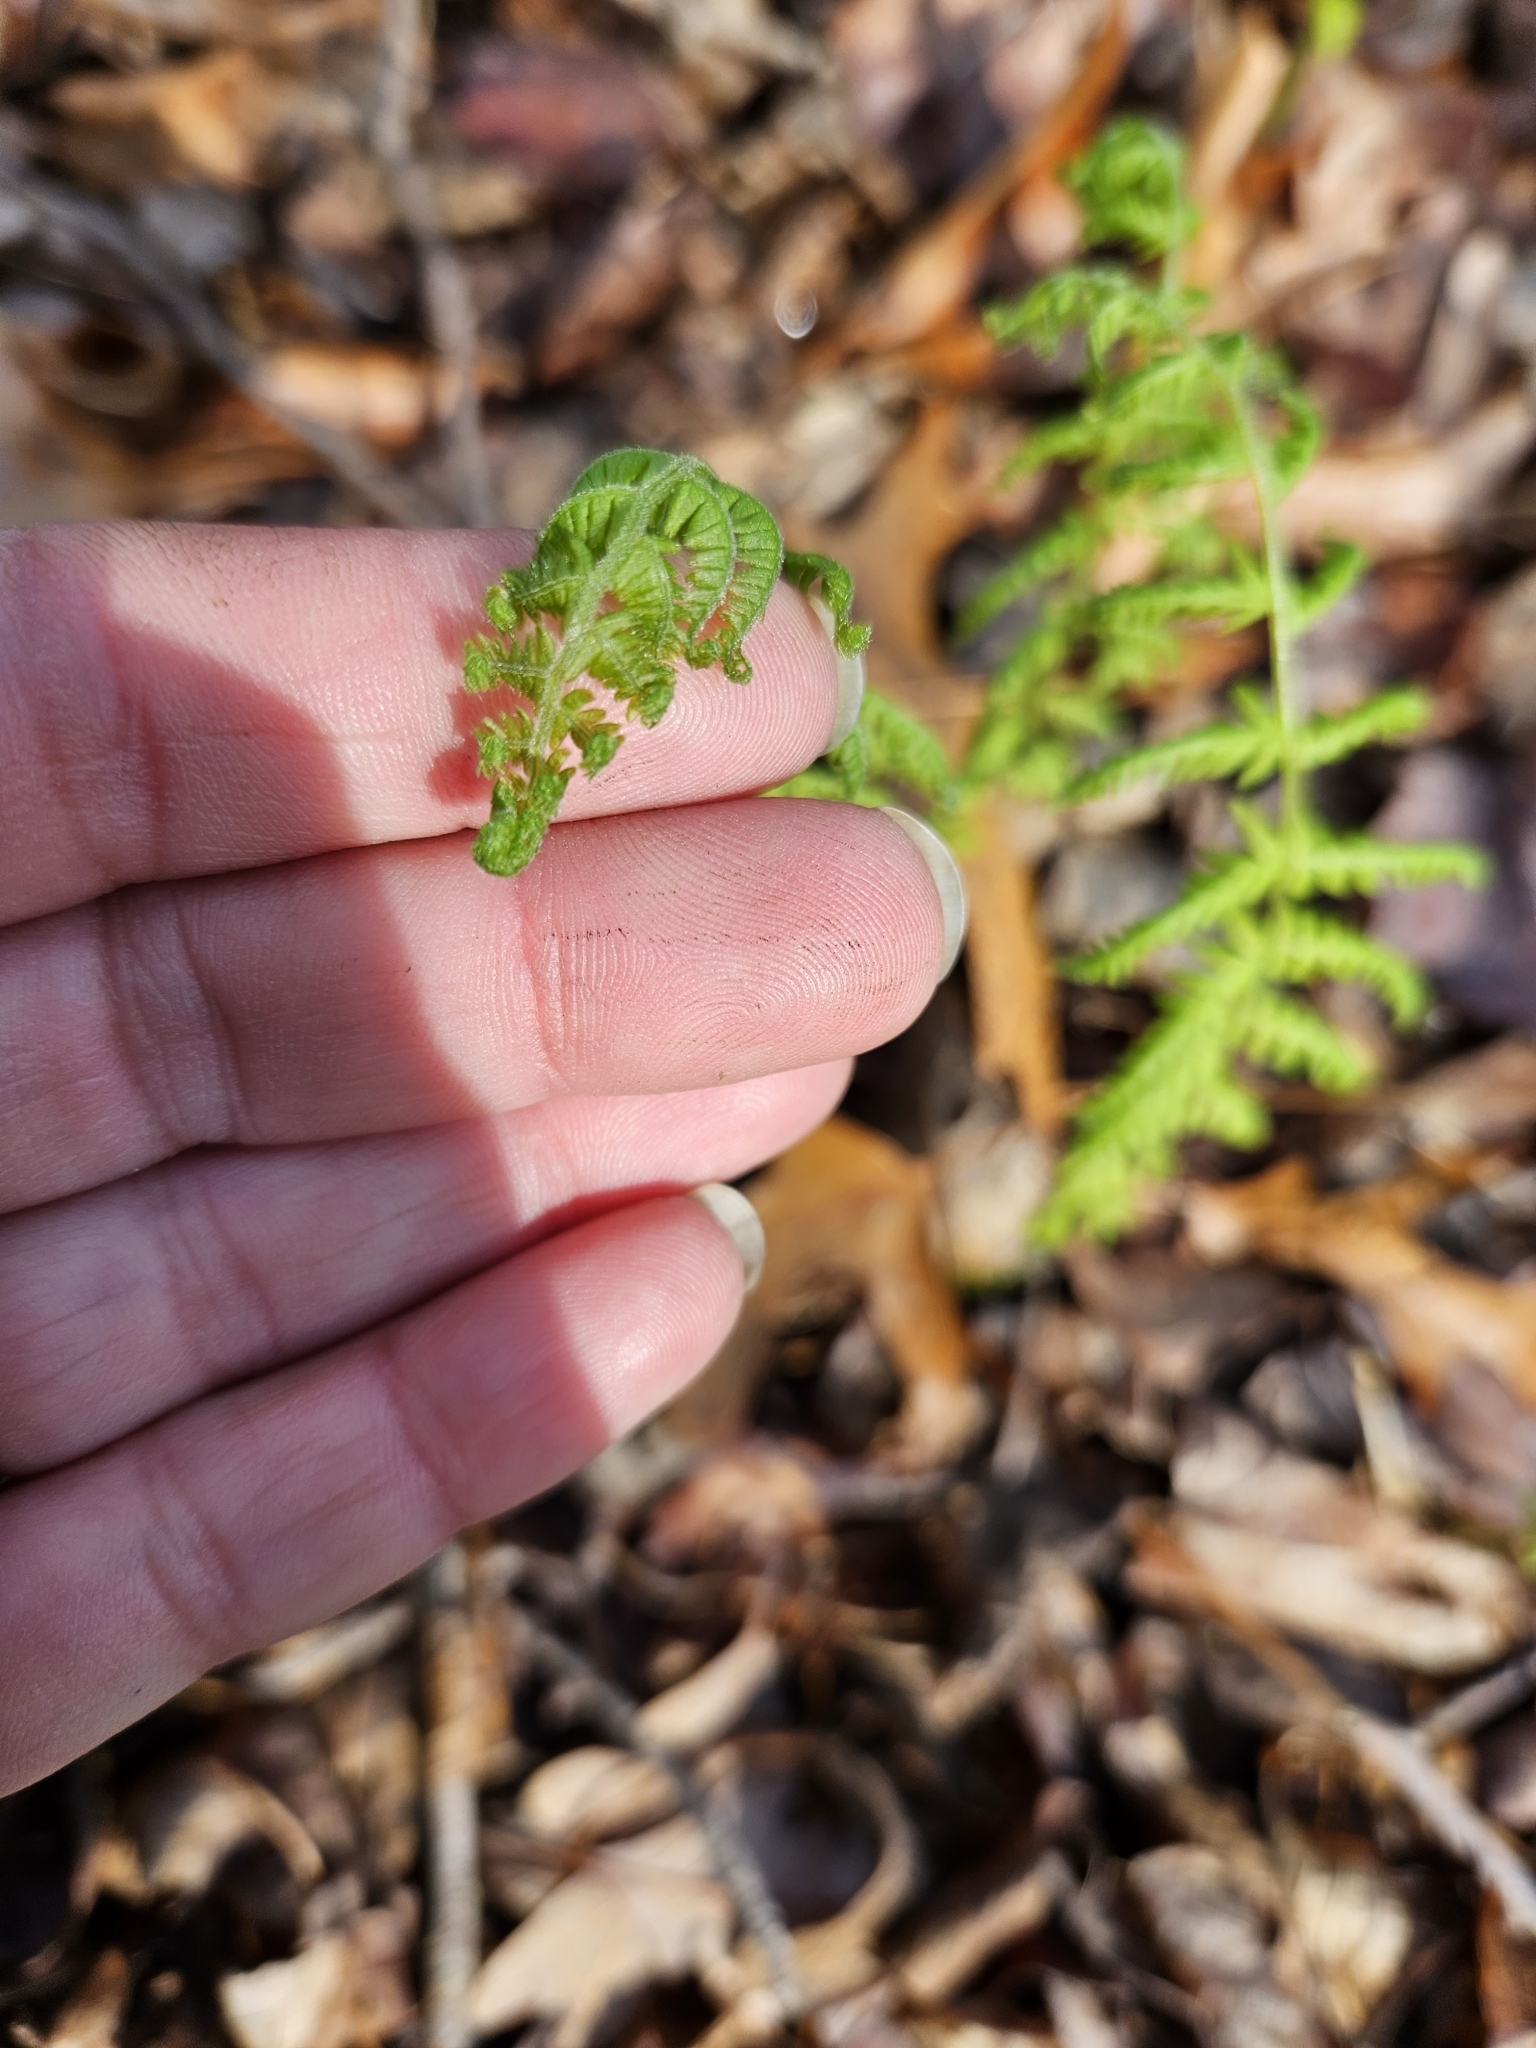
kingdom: Plantae
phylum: Tracheophyta
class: Polypodiopsida
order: Polypodiales
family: Thelypteridaceae
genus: Amauropelta
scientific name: Amauropelta noveboracensis
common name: New york fern
